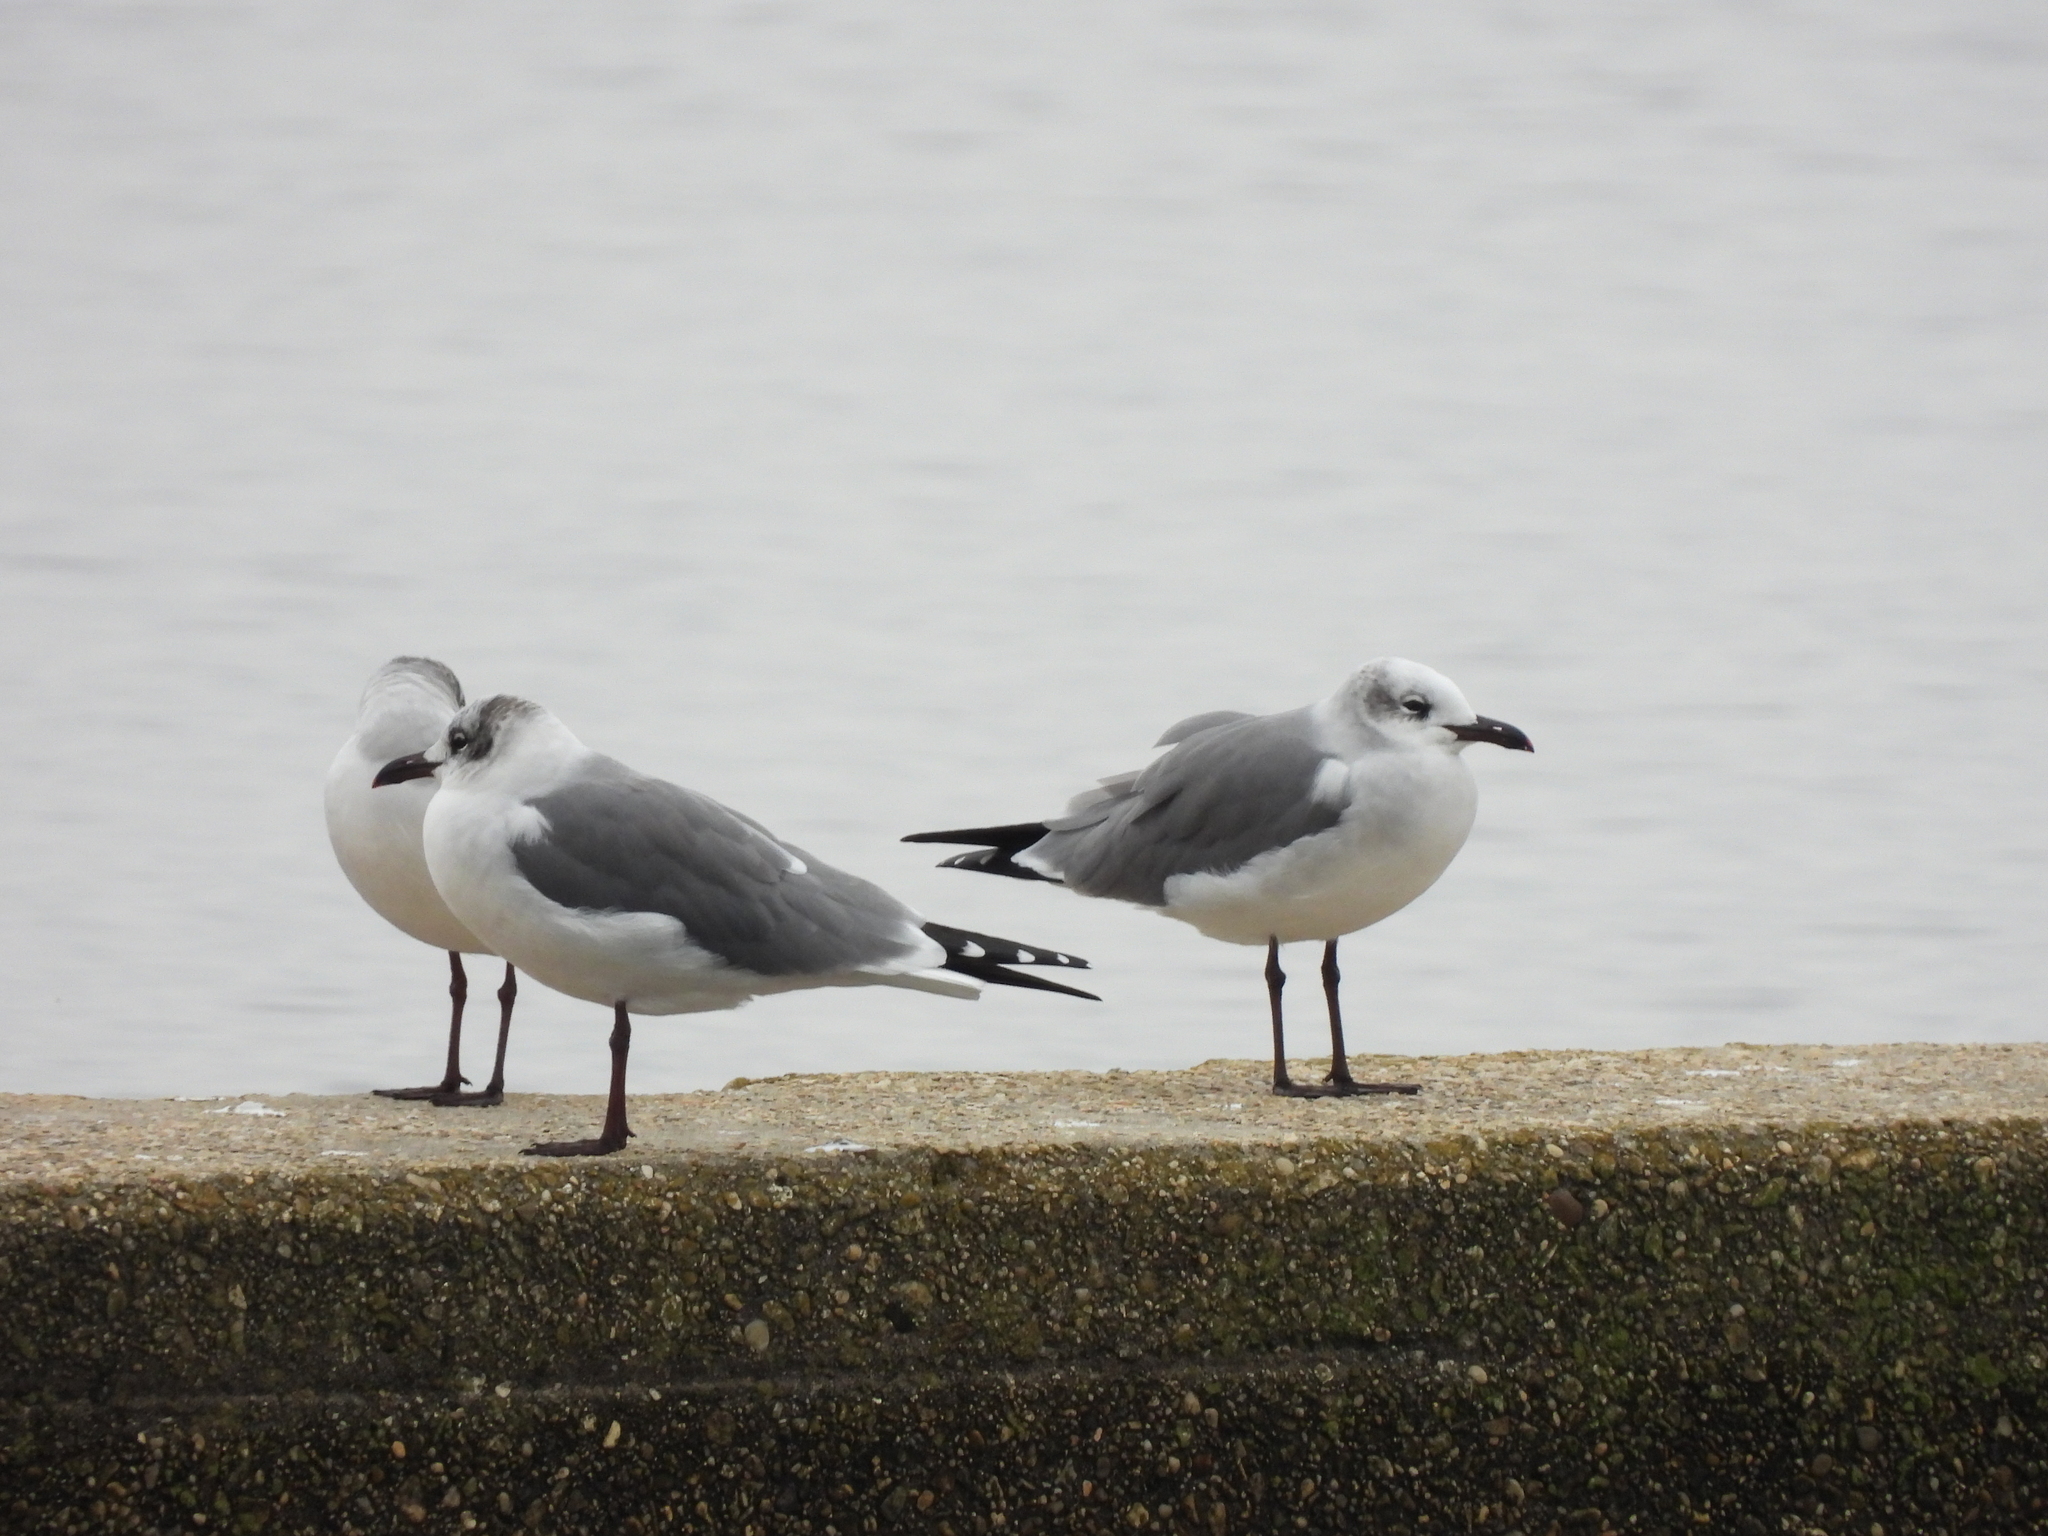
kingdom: Animalia
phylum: Chordata
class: Aves
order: Charadriiformes
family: Laridae
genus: Leucophaeus
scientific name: Leucophaeus atricilla
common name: Laughing gull
